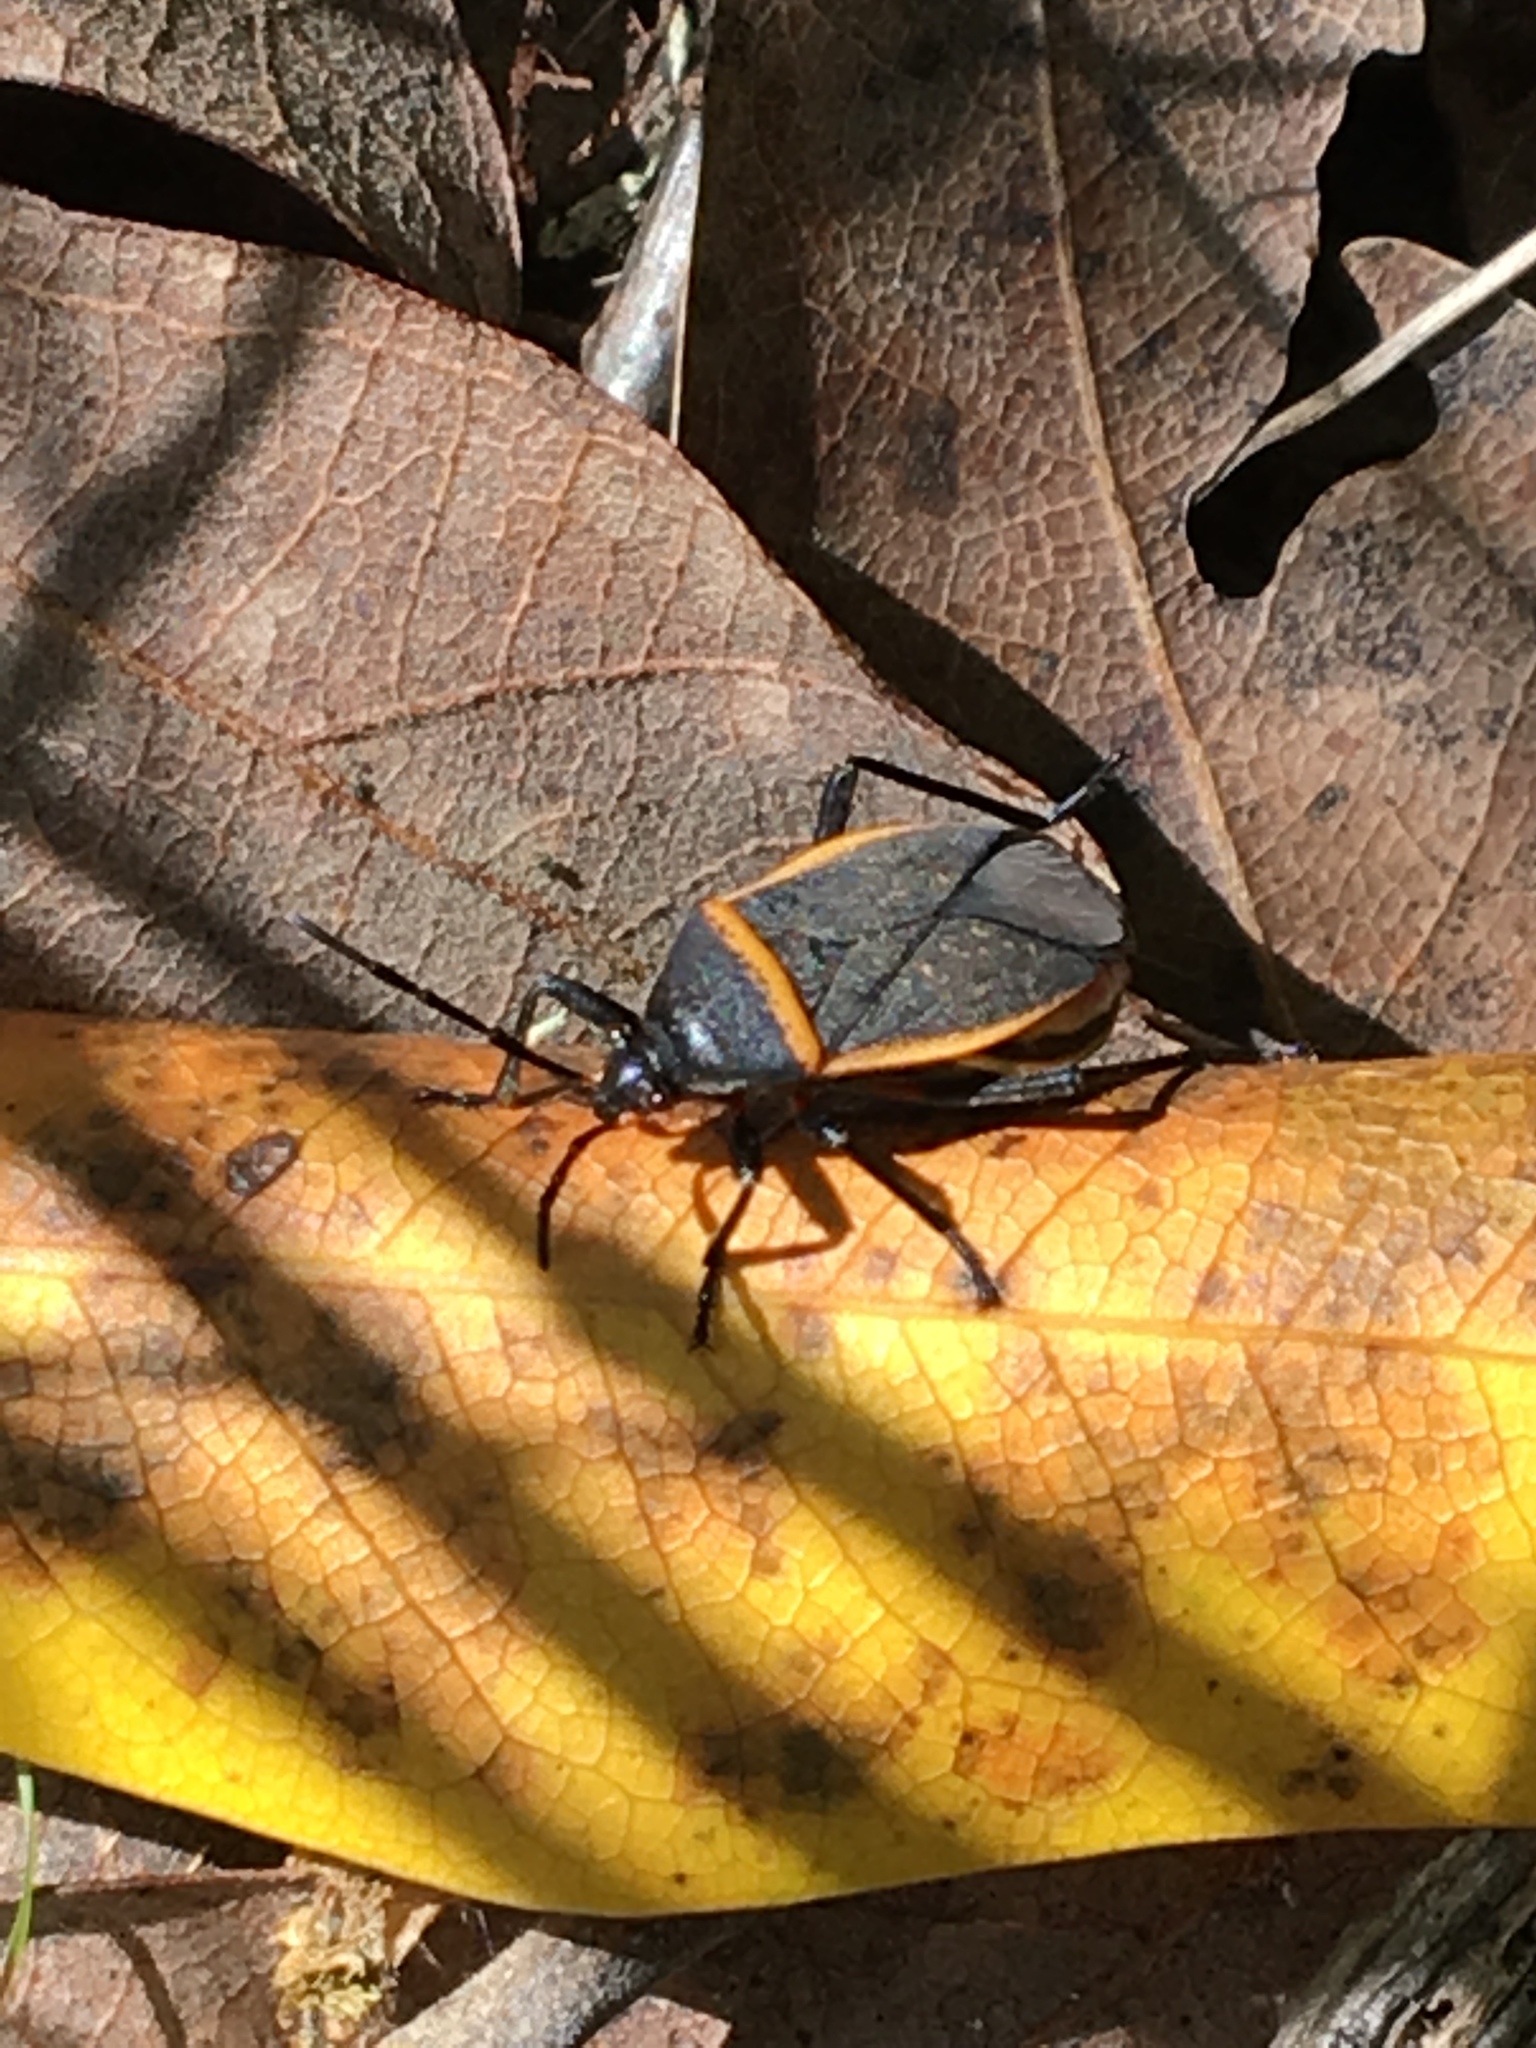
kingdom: Animalia
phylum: Arthropoda
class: Insecta
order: Hemiptera
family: Largidae
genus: Largus
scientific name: Largus californicus
